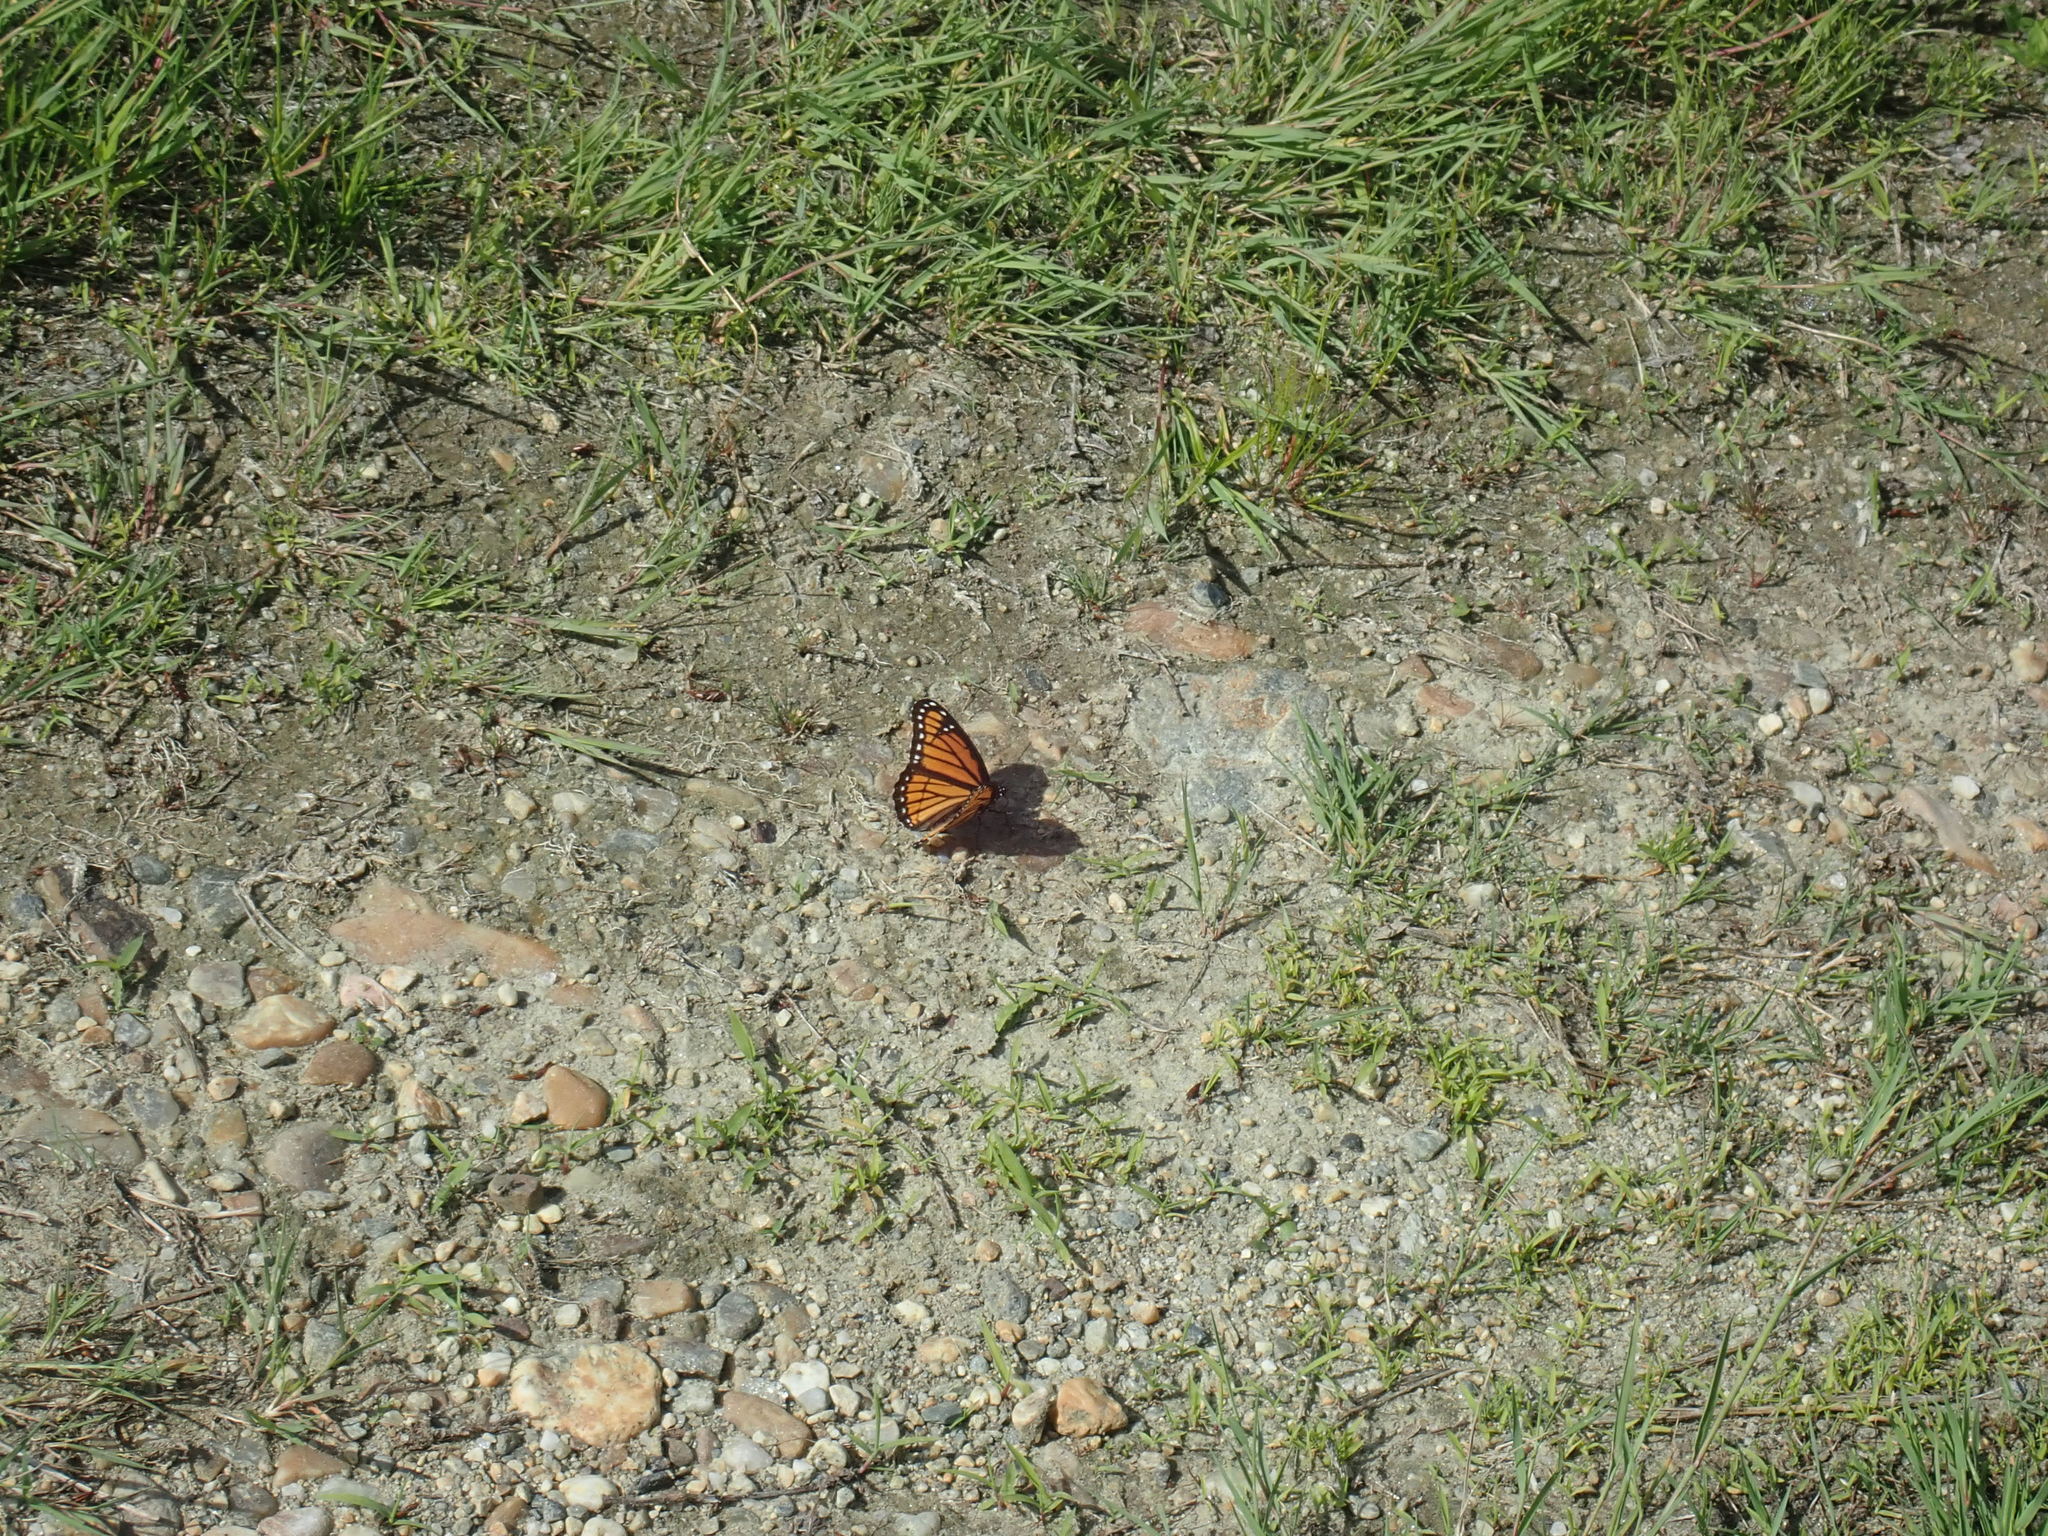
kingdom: Animalia
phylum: Arthropoda
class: Insecta
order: Lepidoptera
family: Nymphalidae
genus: Limenitis
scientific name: Limenitis archippus
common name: Viceroy
